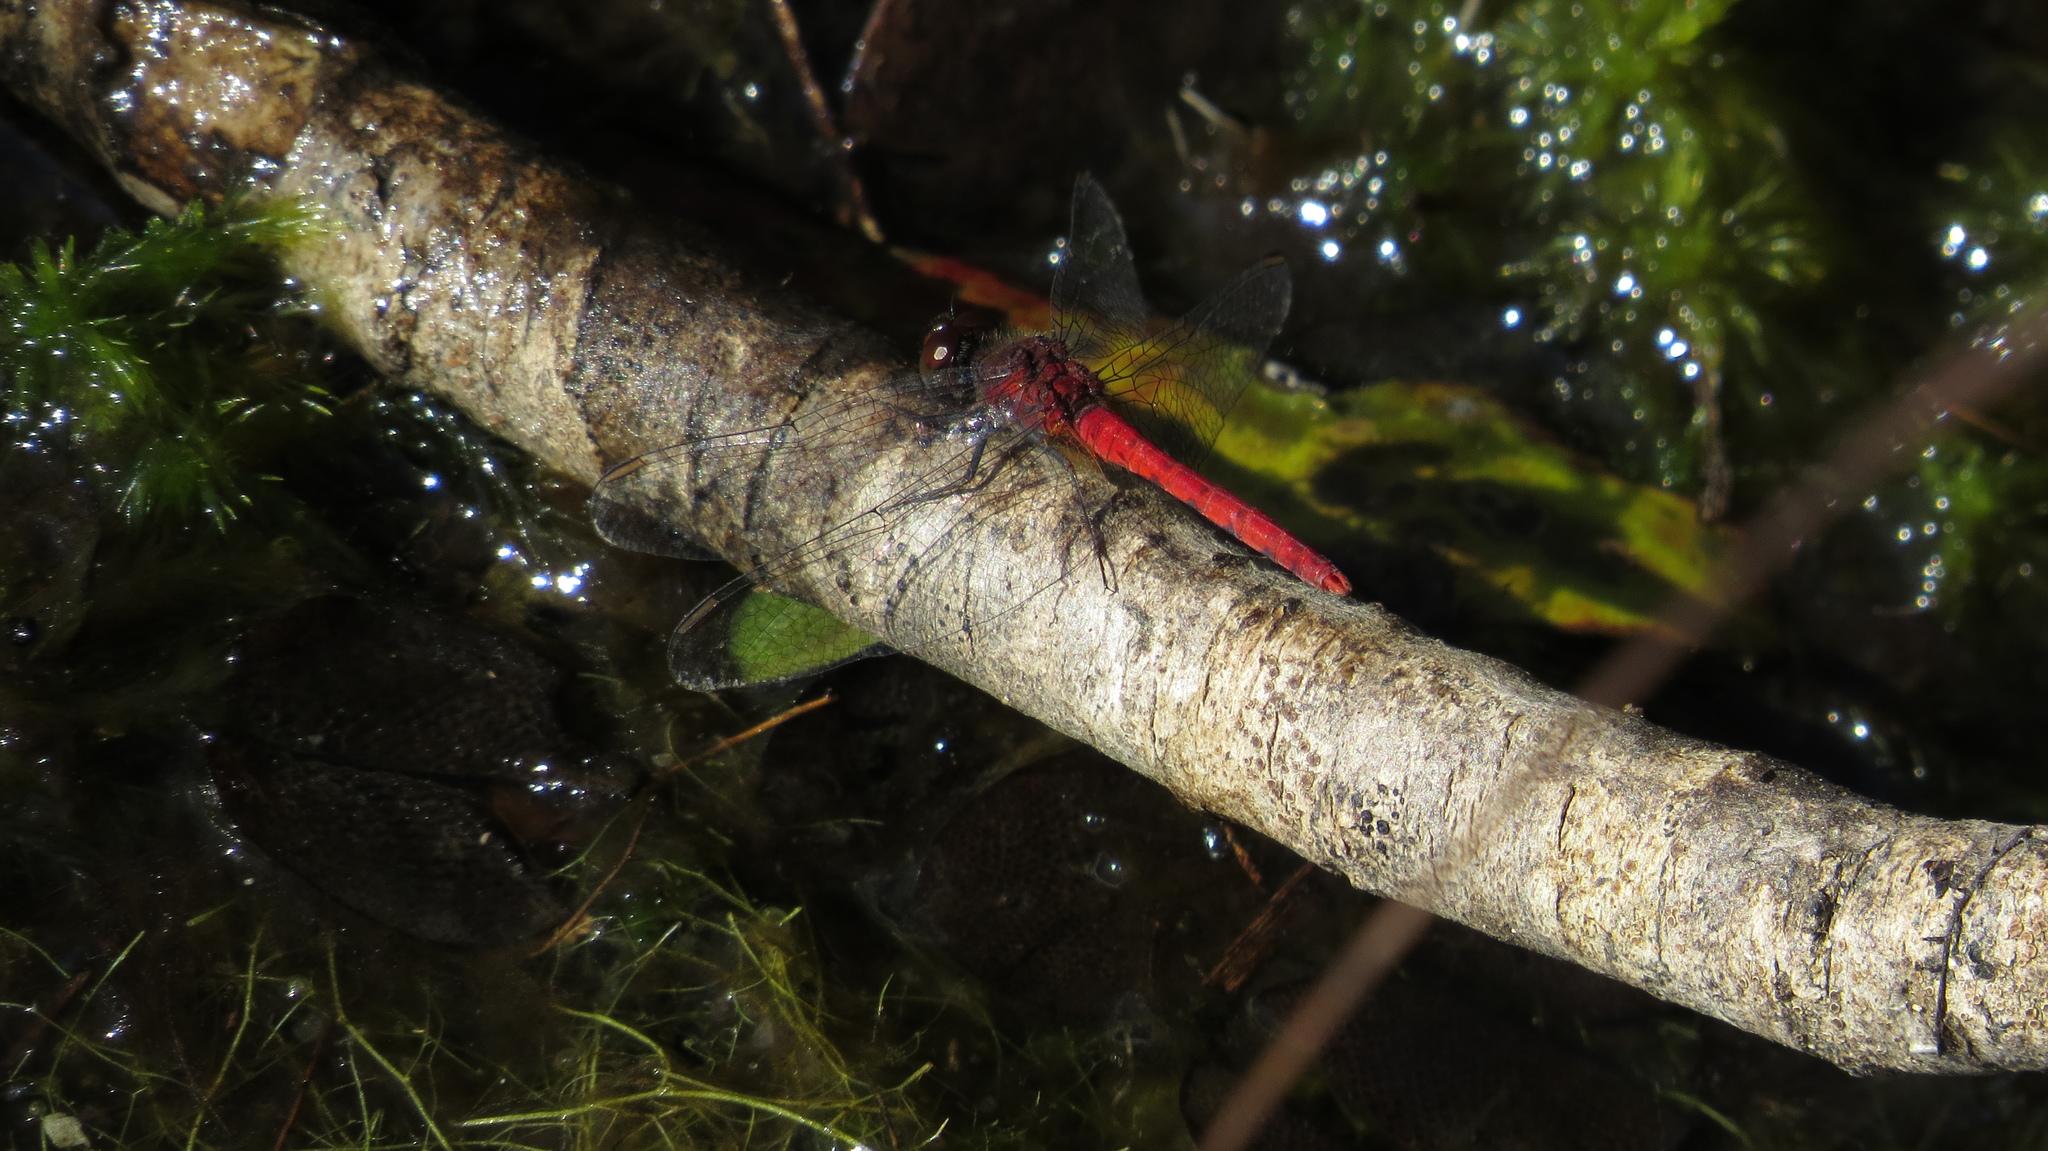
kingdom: Animalia
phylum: Arthropoda
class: Insecta
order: Odonata
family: Libellulidae
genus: Nannodiplax
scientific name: Nannodiplax rubra
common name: Pygmy percher
